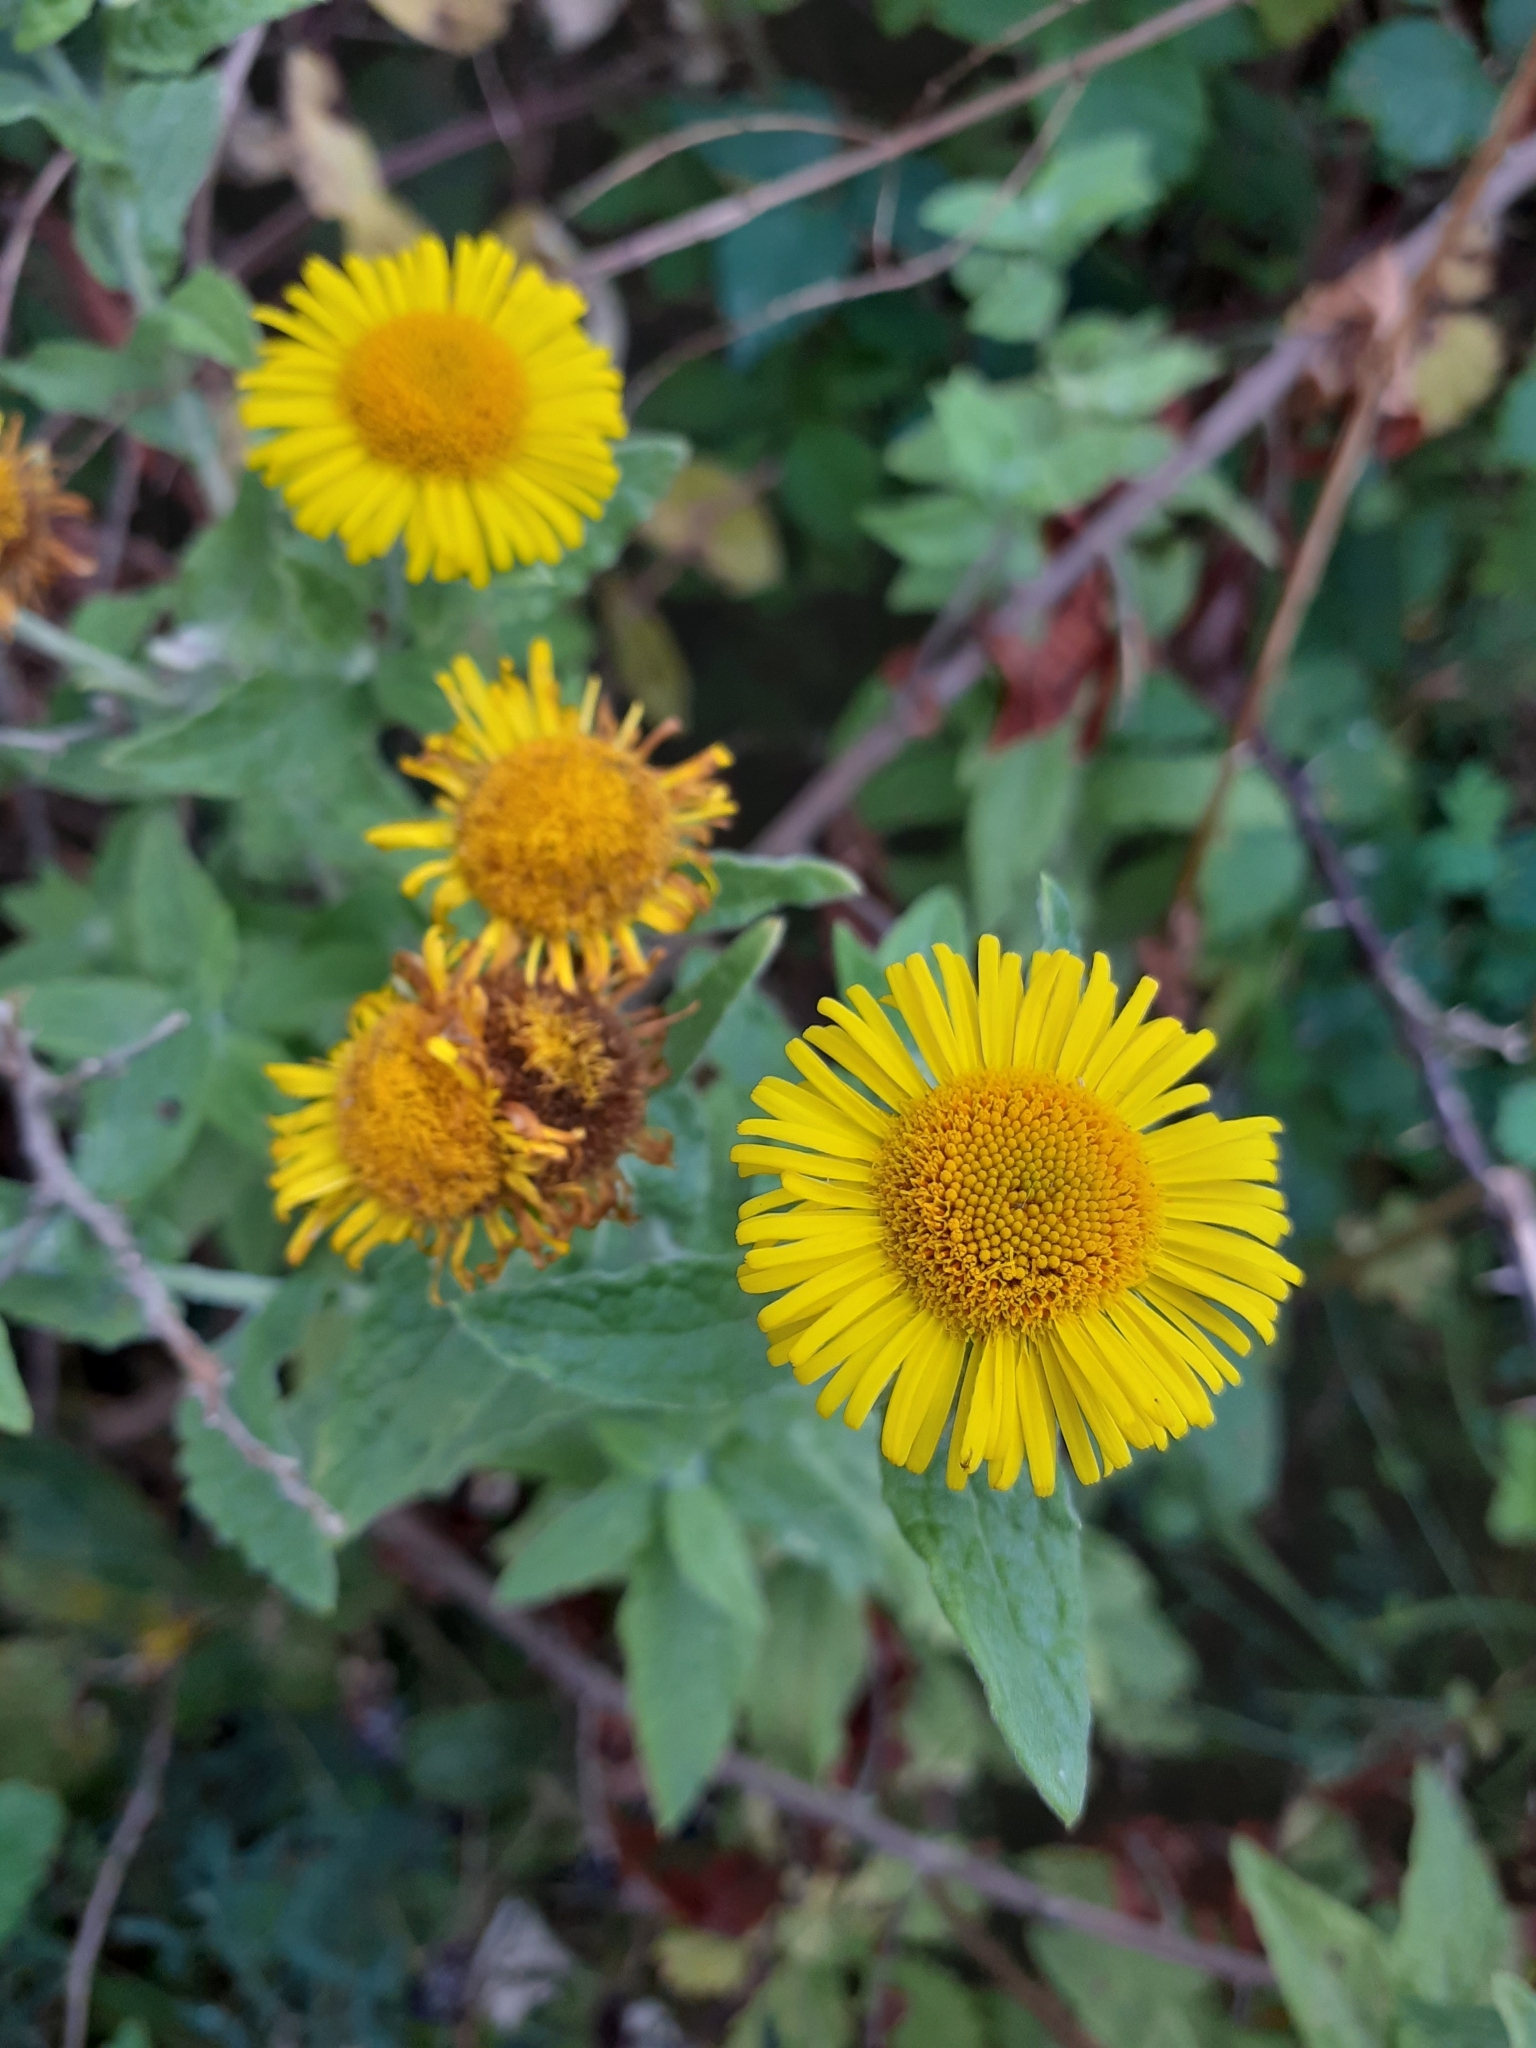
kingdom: Plantae
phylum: Tracheophyta
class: Magnoliopsida
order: Asterales
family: Asteraceae
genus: Pulicaria
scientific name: Pulicaria dysenterica
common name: Common fleabane
